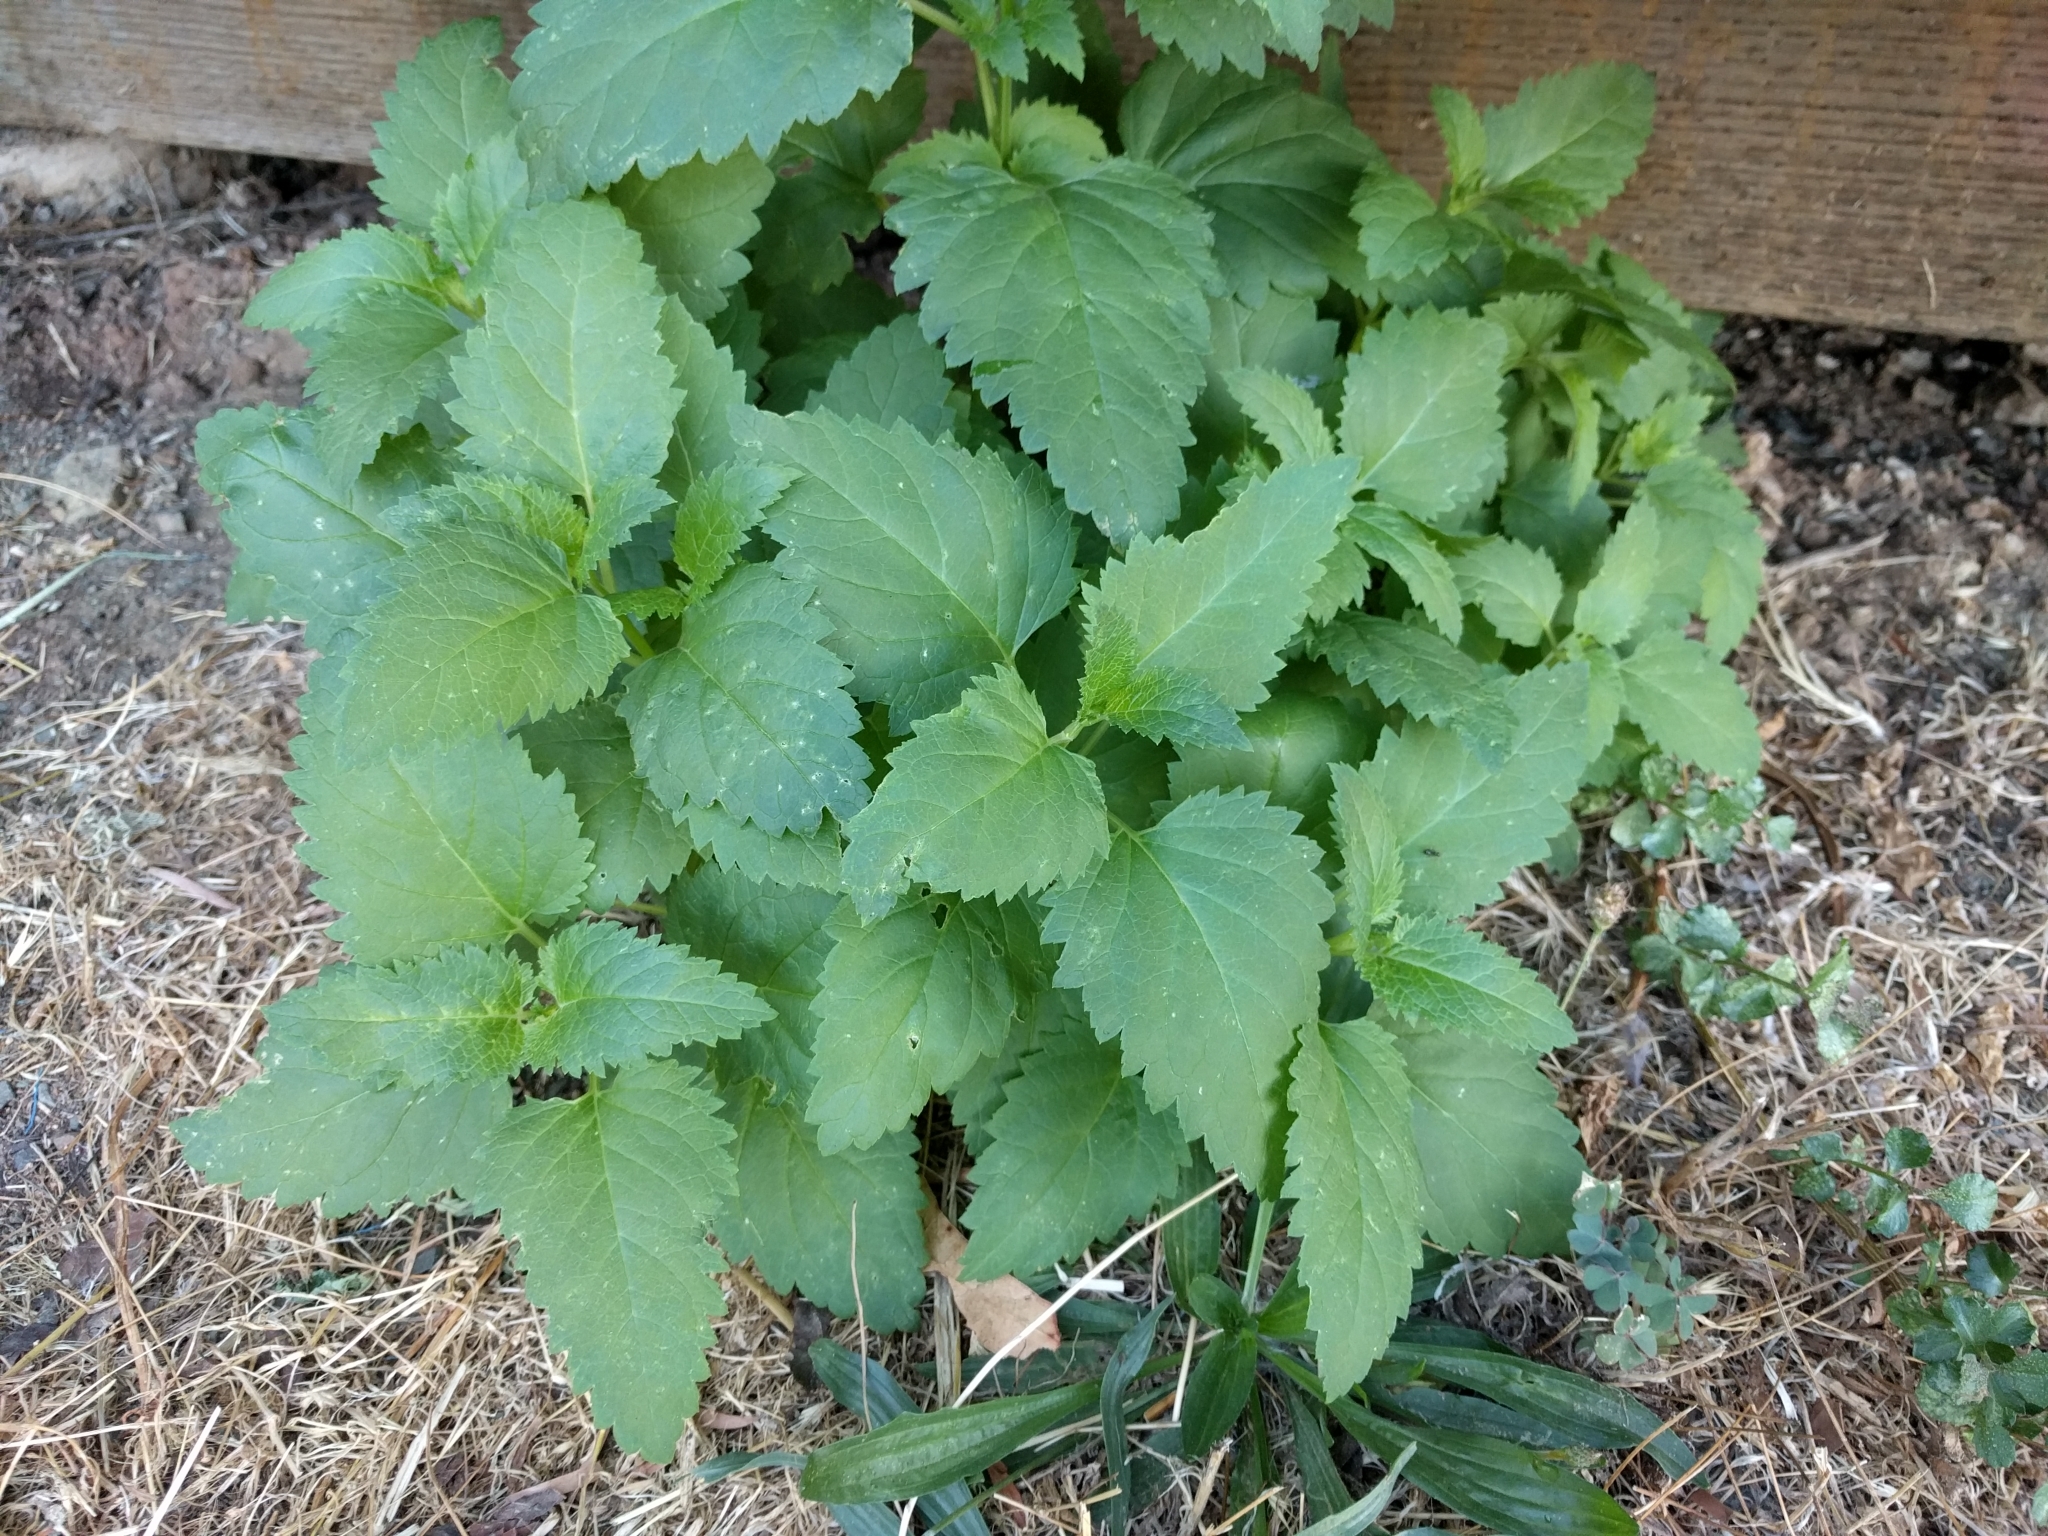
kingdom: Plantae
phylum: Tracheophyta
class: Magnoliopsida
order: Lamiales
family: Scrophulariaceae
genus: Scrophularia
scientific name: Scrophularia californica
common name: California figwort
